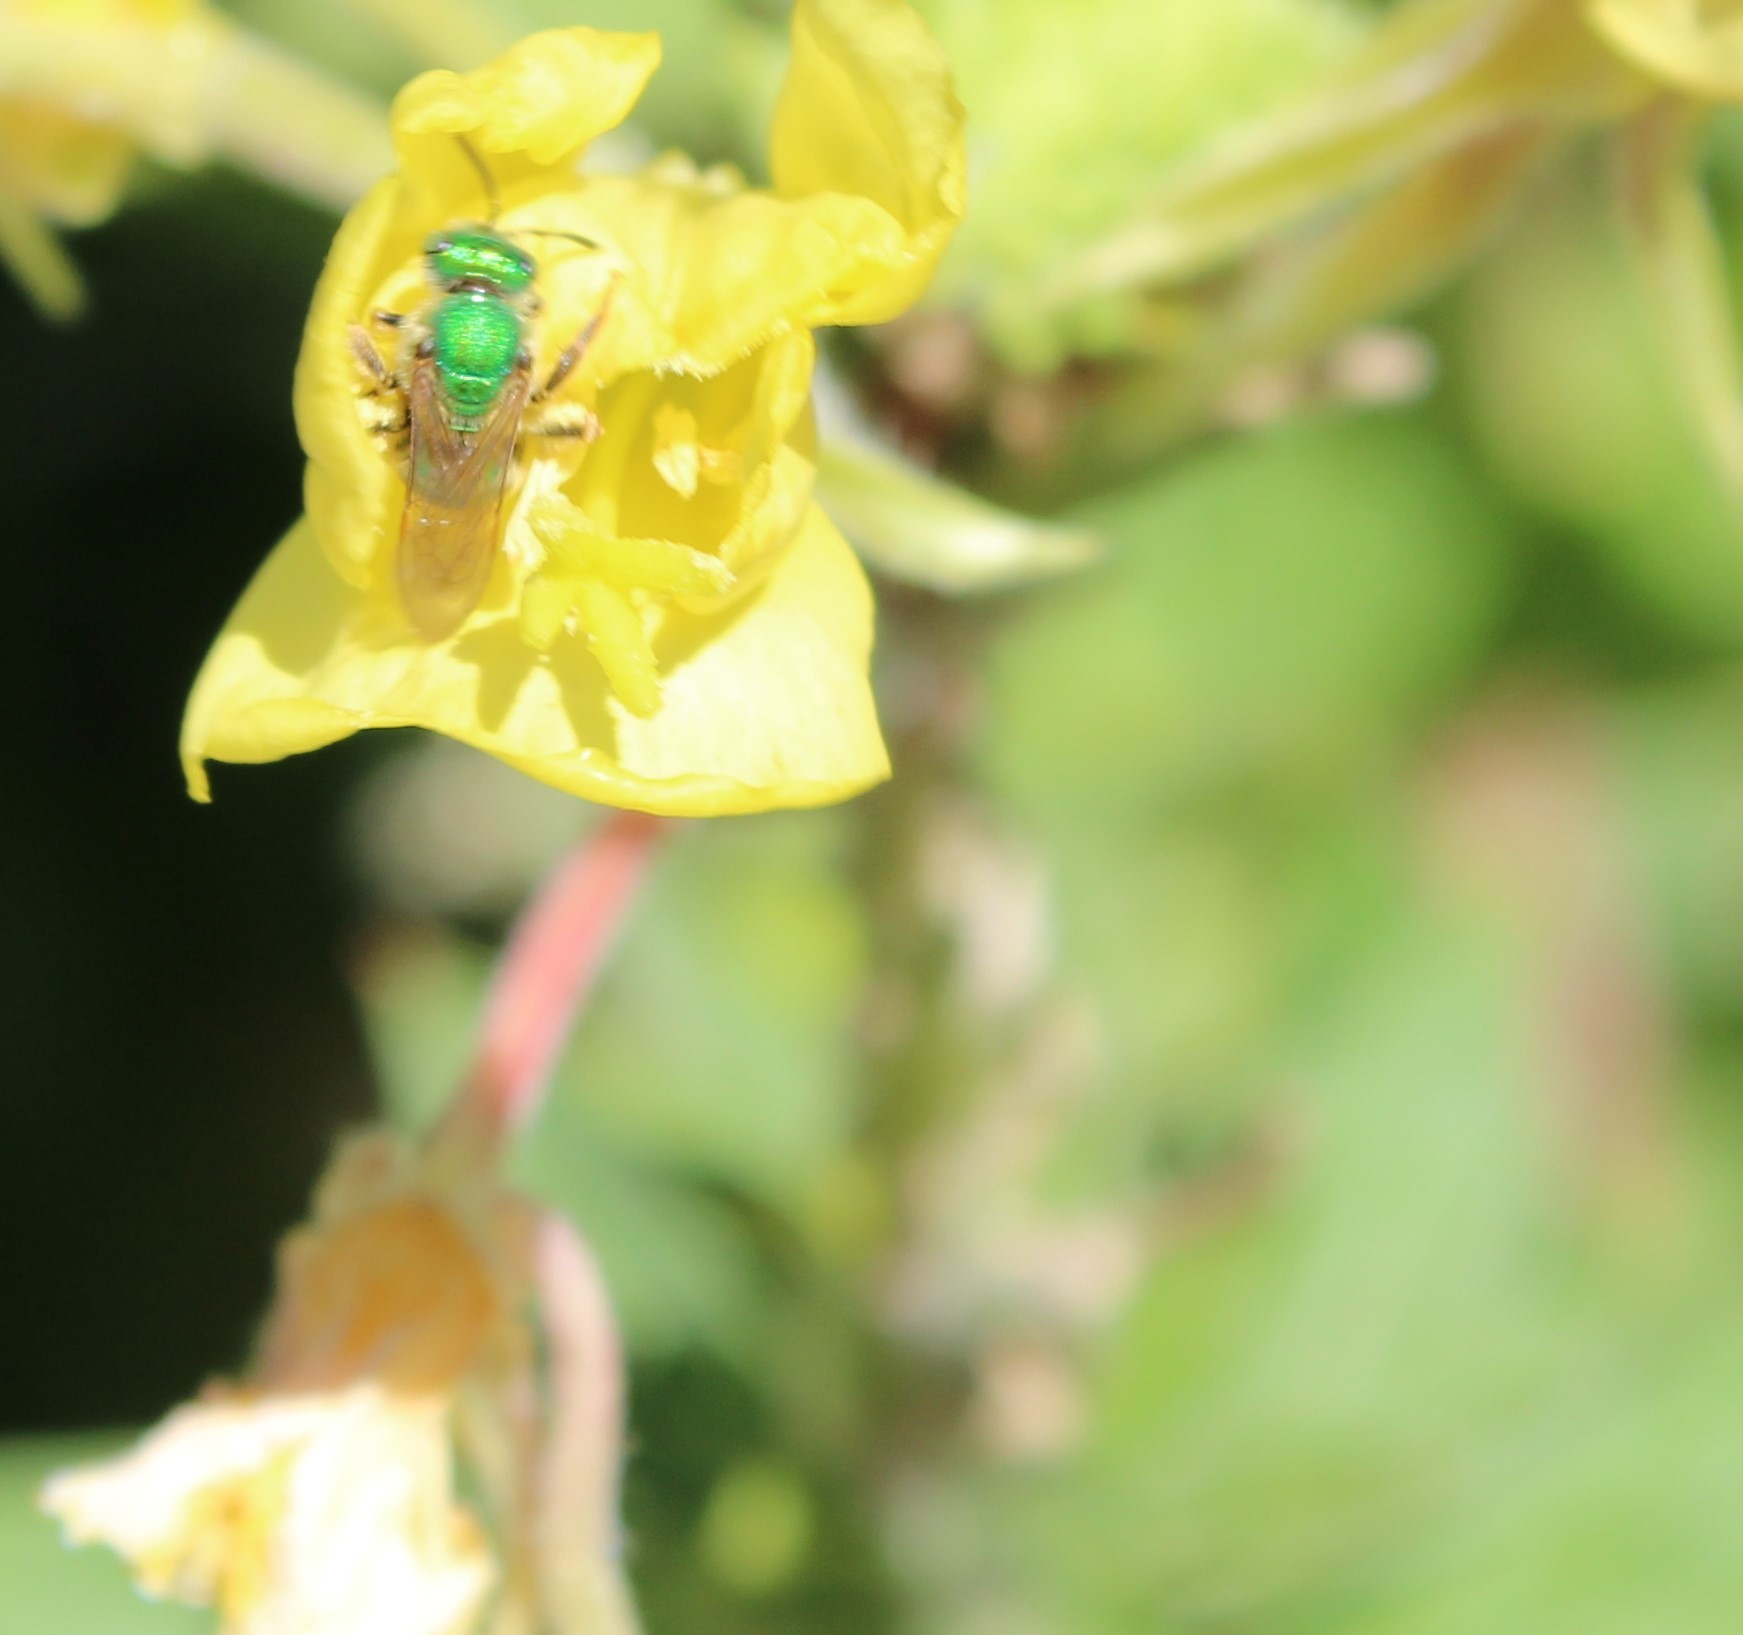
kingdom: Animalia
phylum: Arthropoda
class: Insecta
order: Hymenoptera
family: Halictidae
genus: Agapostemon
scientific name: Agapostemon
